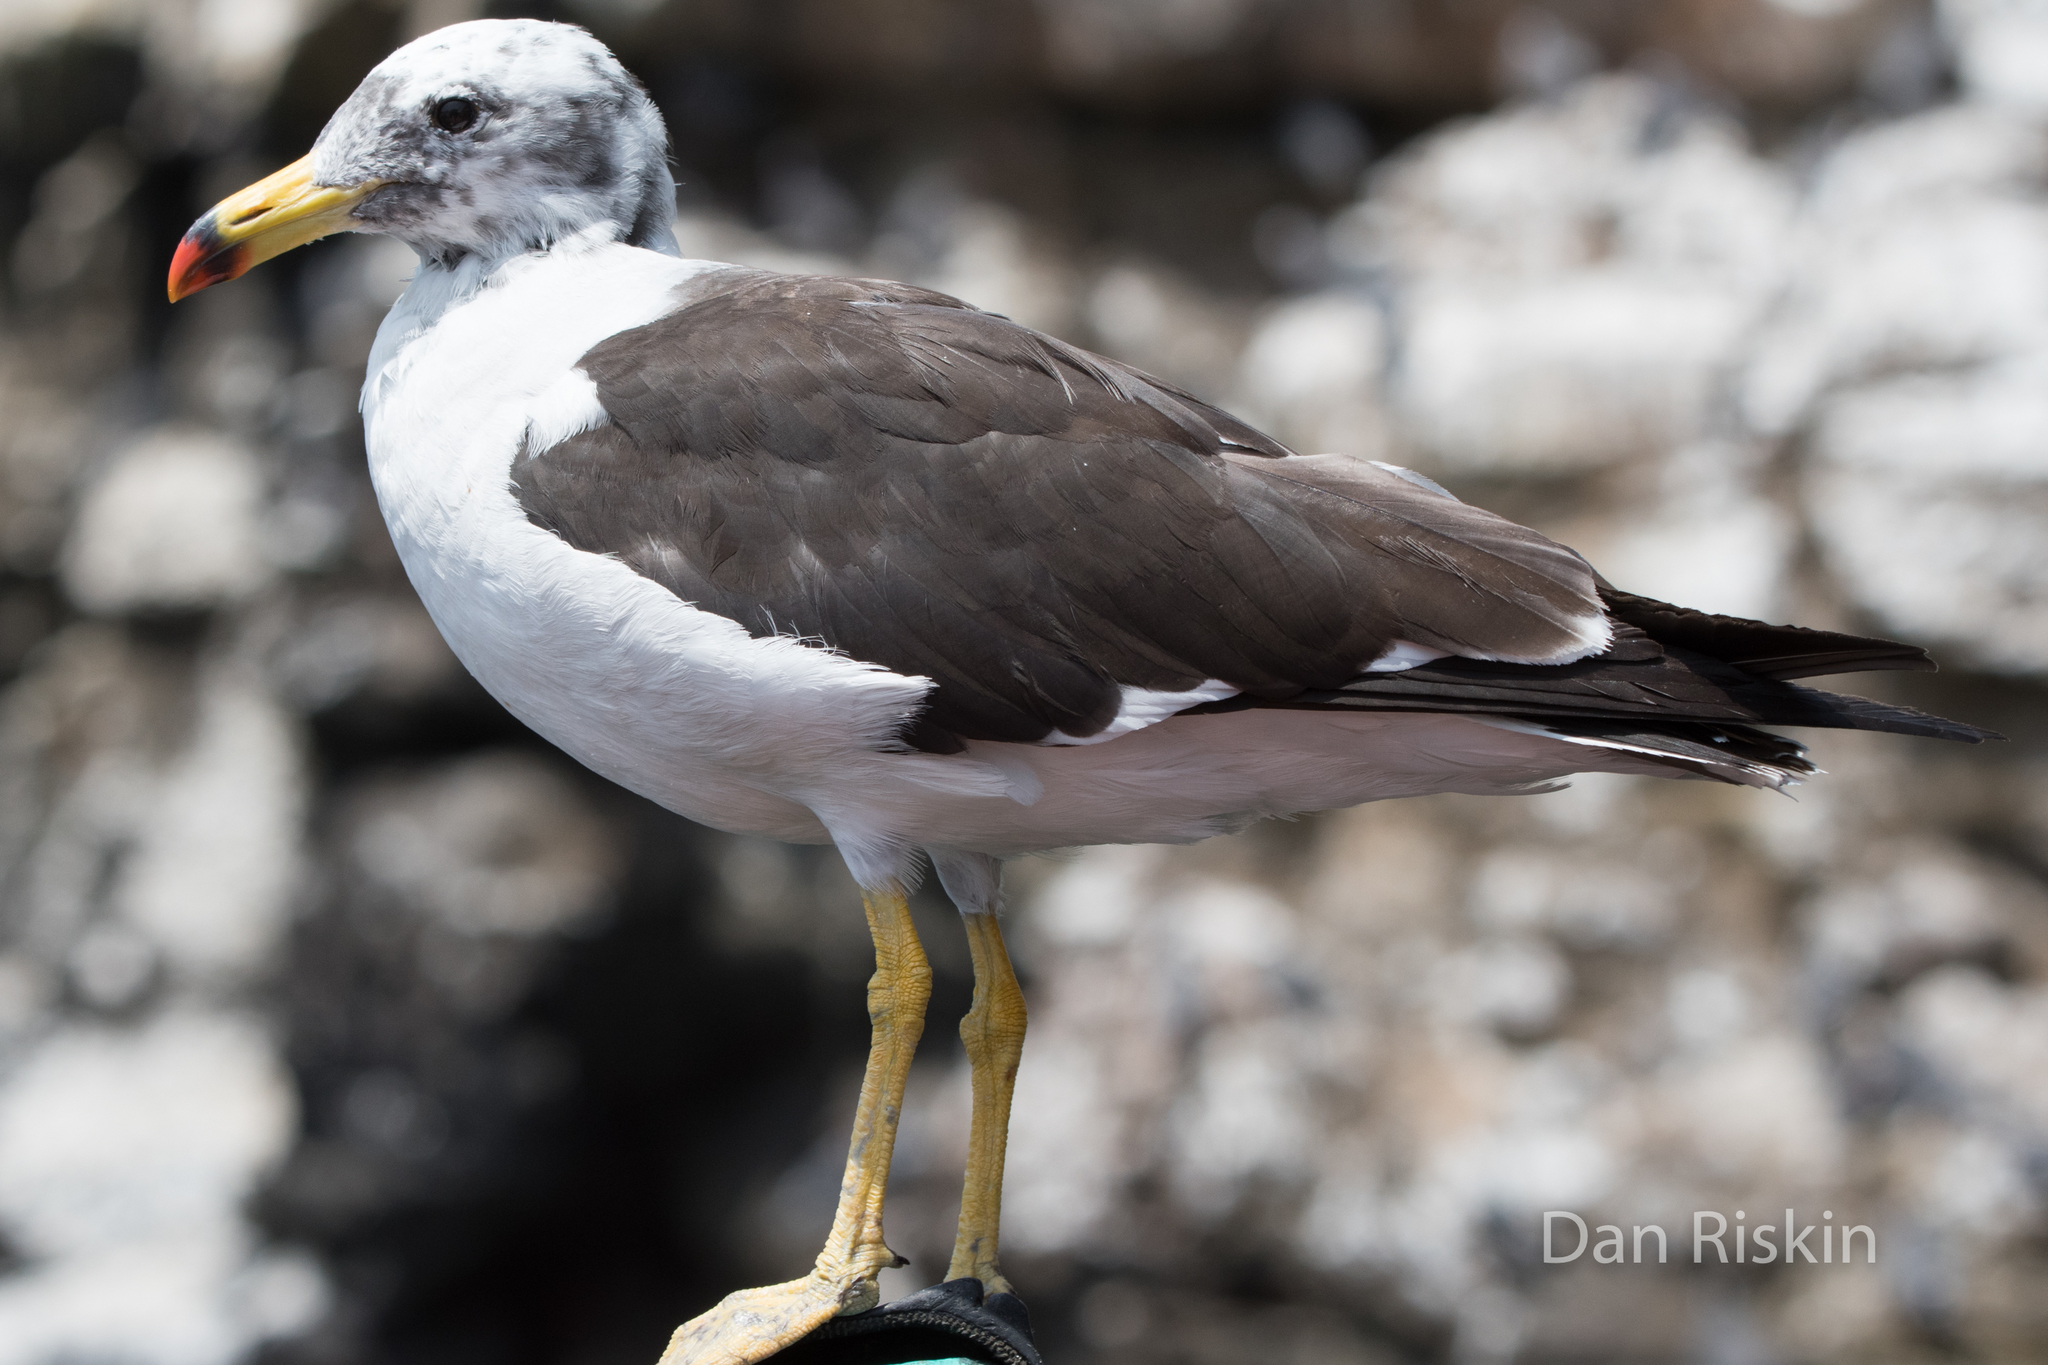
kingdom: Animalia
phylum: Chordata
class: Aves
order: Charadriiformes
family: Laridae
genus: Larus
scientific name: Larus belcheri
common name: Belcher's gull
